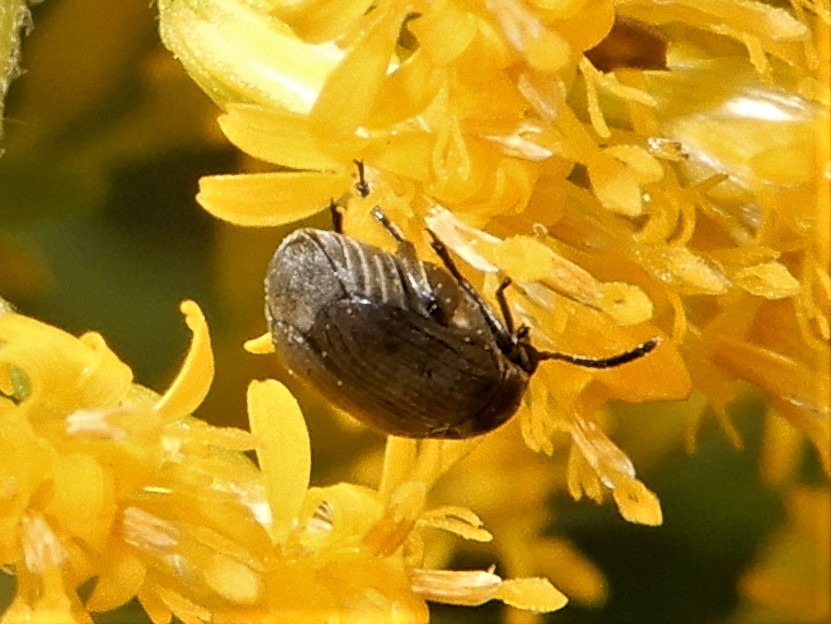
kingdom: Animalia
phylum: Arthropoda
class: Insecta
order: Coleoptera
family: Chrysomelidae
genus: Bruchidius
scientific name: Bruchidius villosus
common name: Scotch broom bruchid
